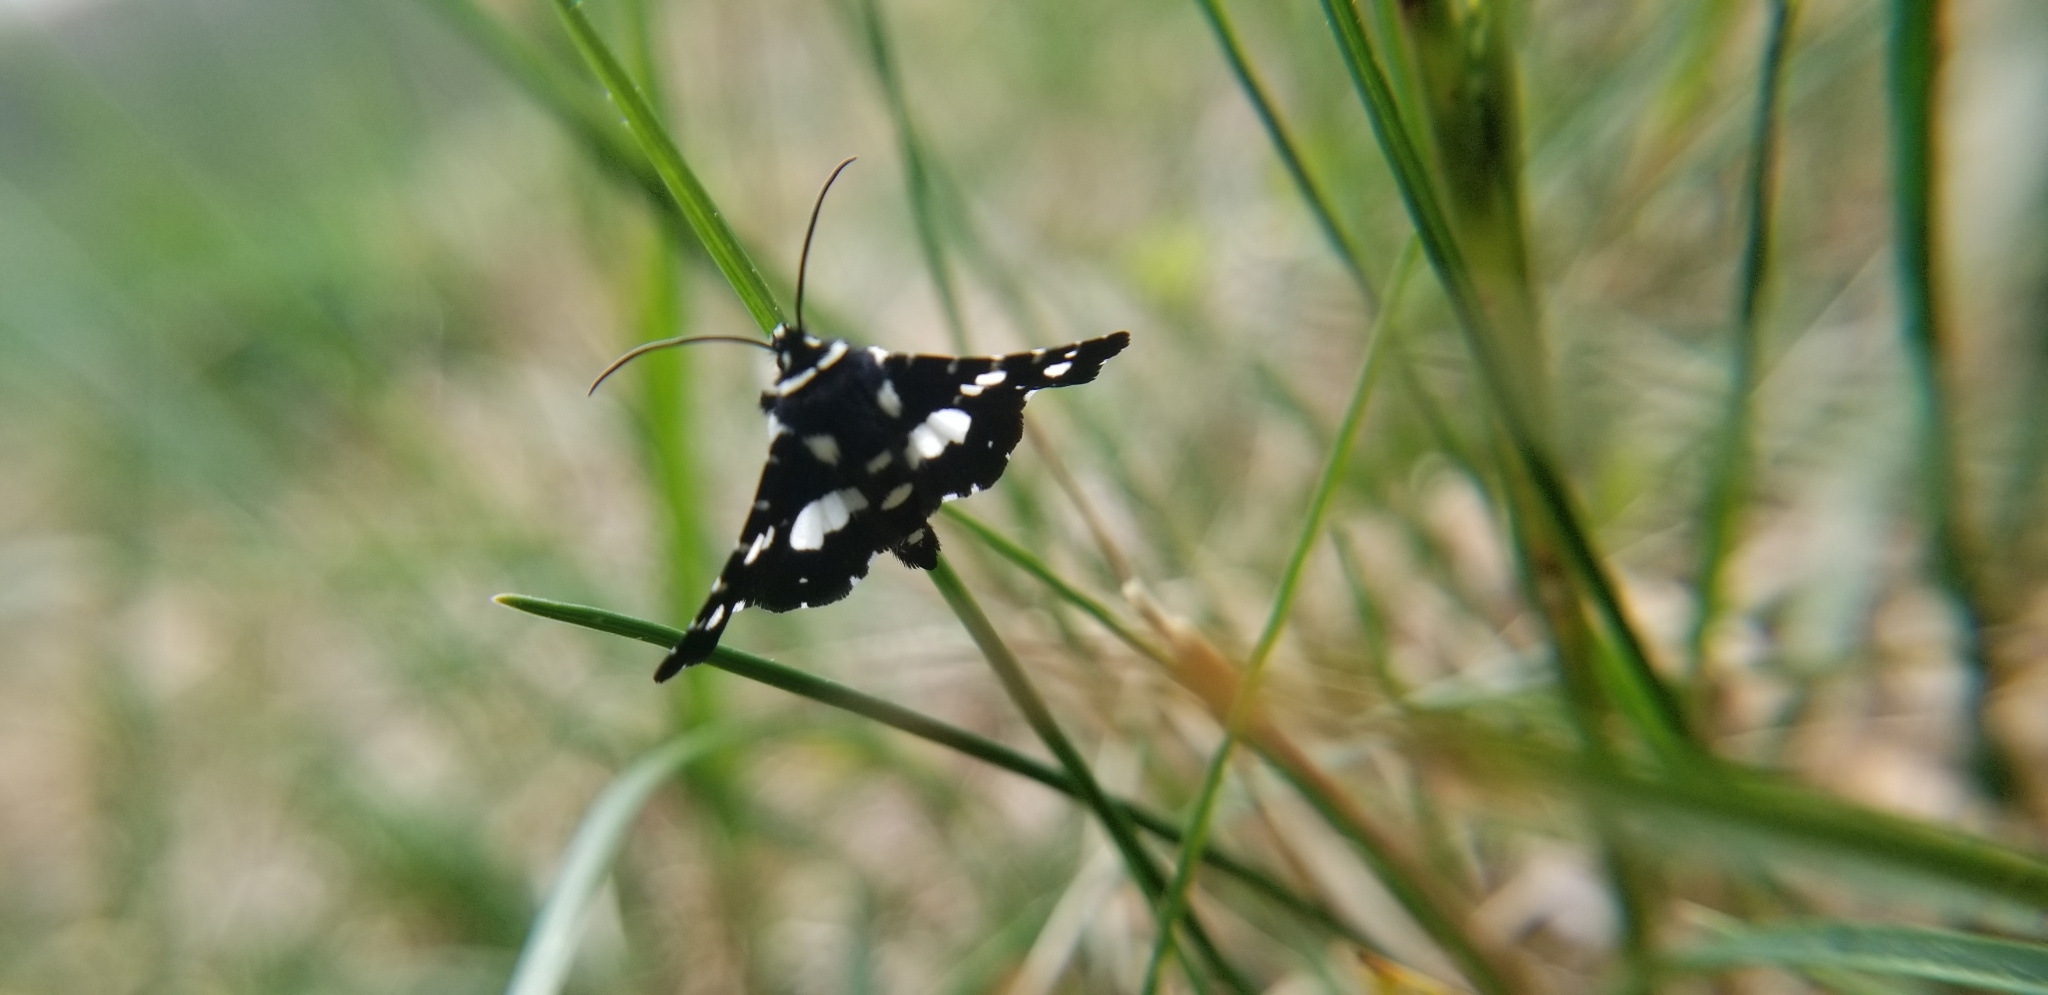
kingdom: Animalia
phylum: Arthropoda
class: Insecta
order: Lepidoptera
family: Thyrididae
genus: Pseudothyris
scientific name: Pseudothyris sepulchralis
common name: Mournful thyris moth
